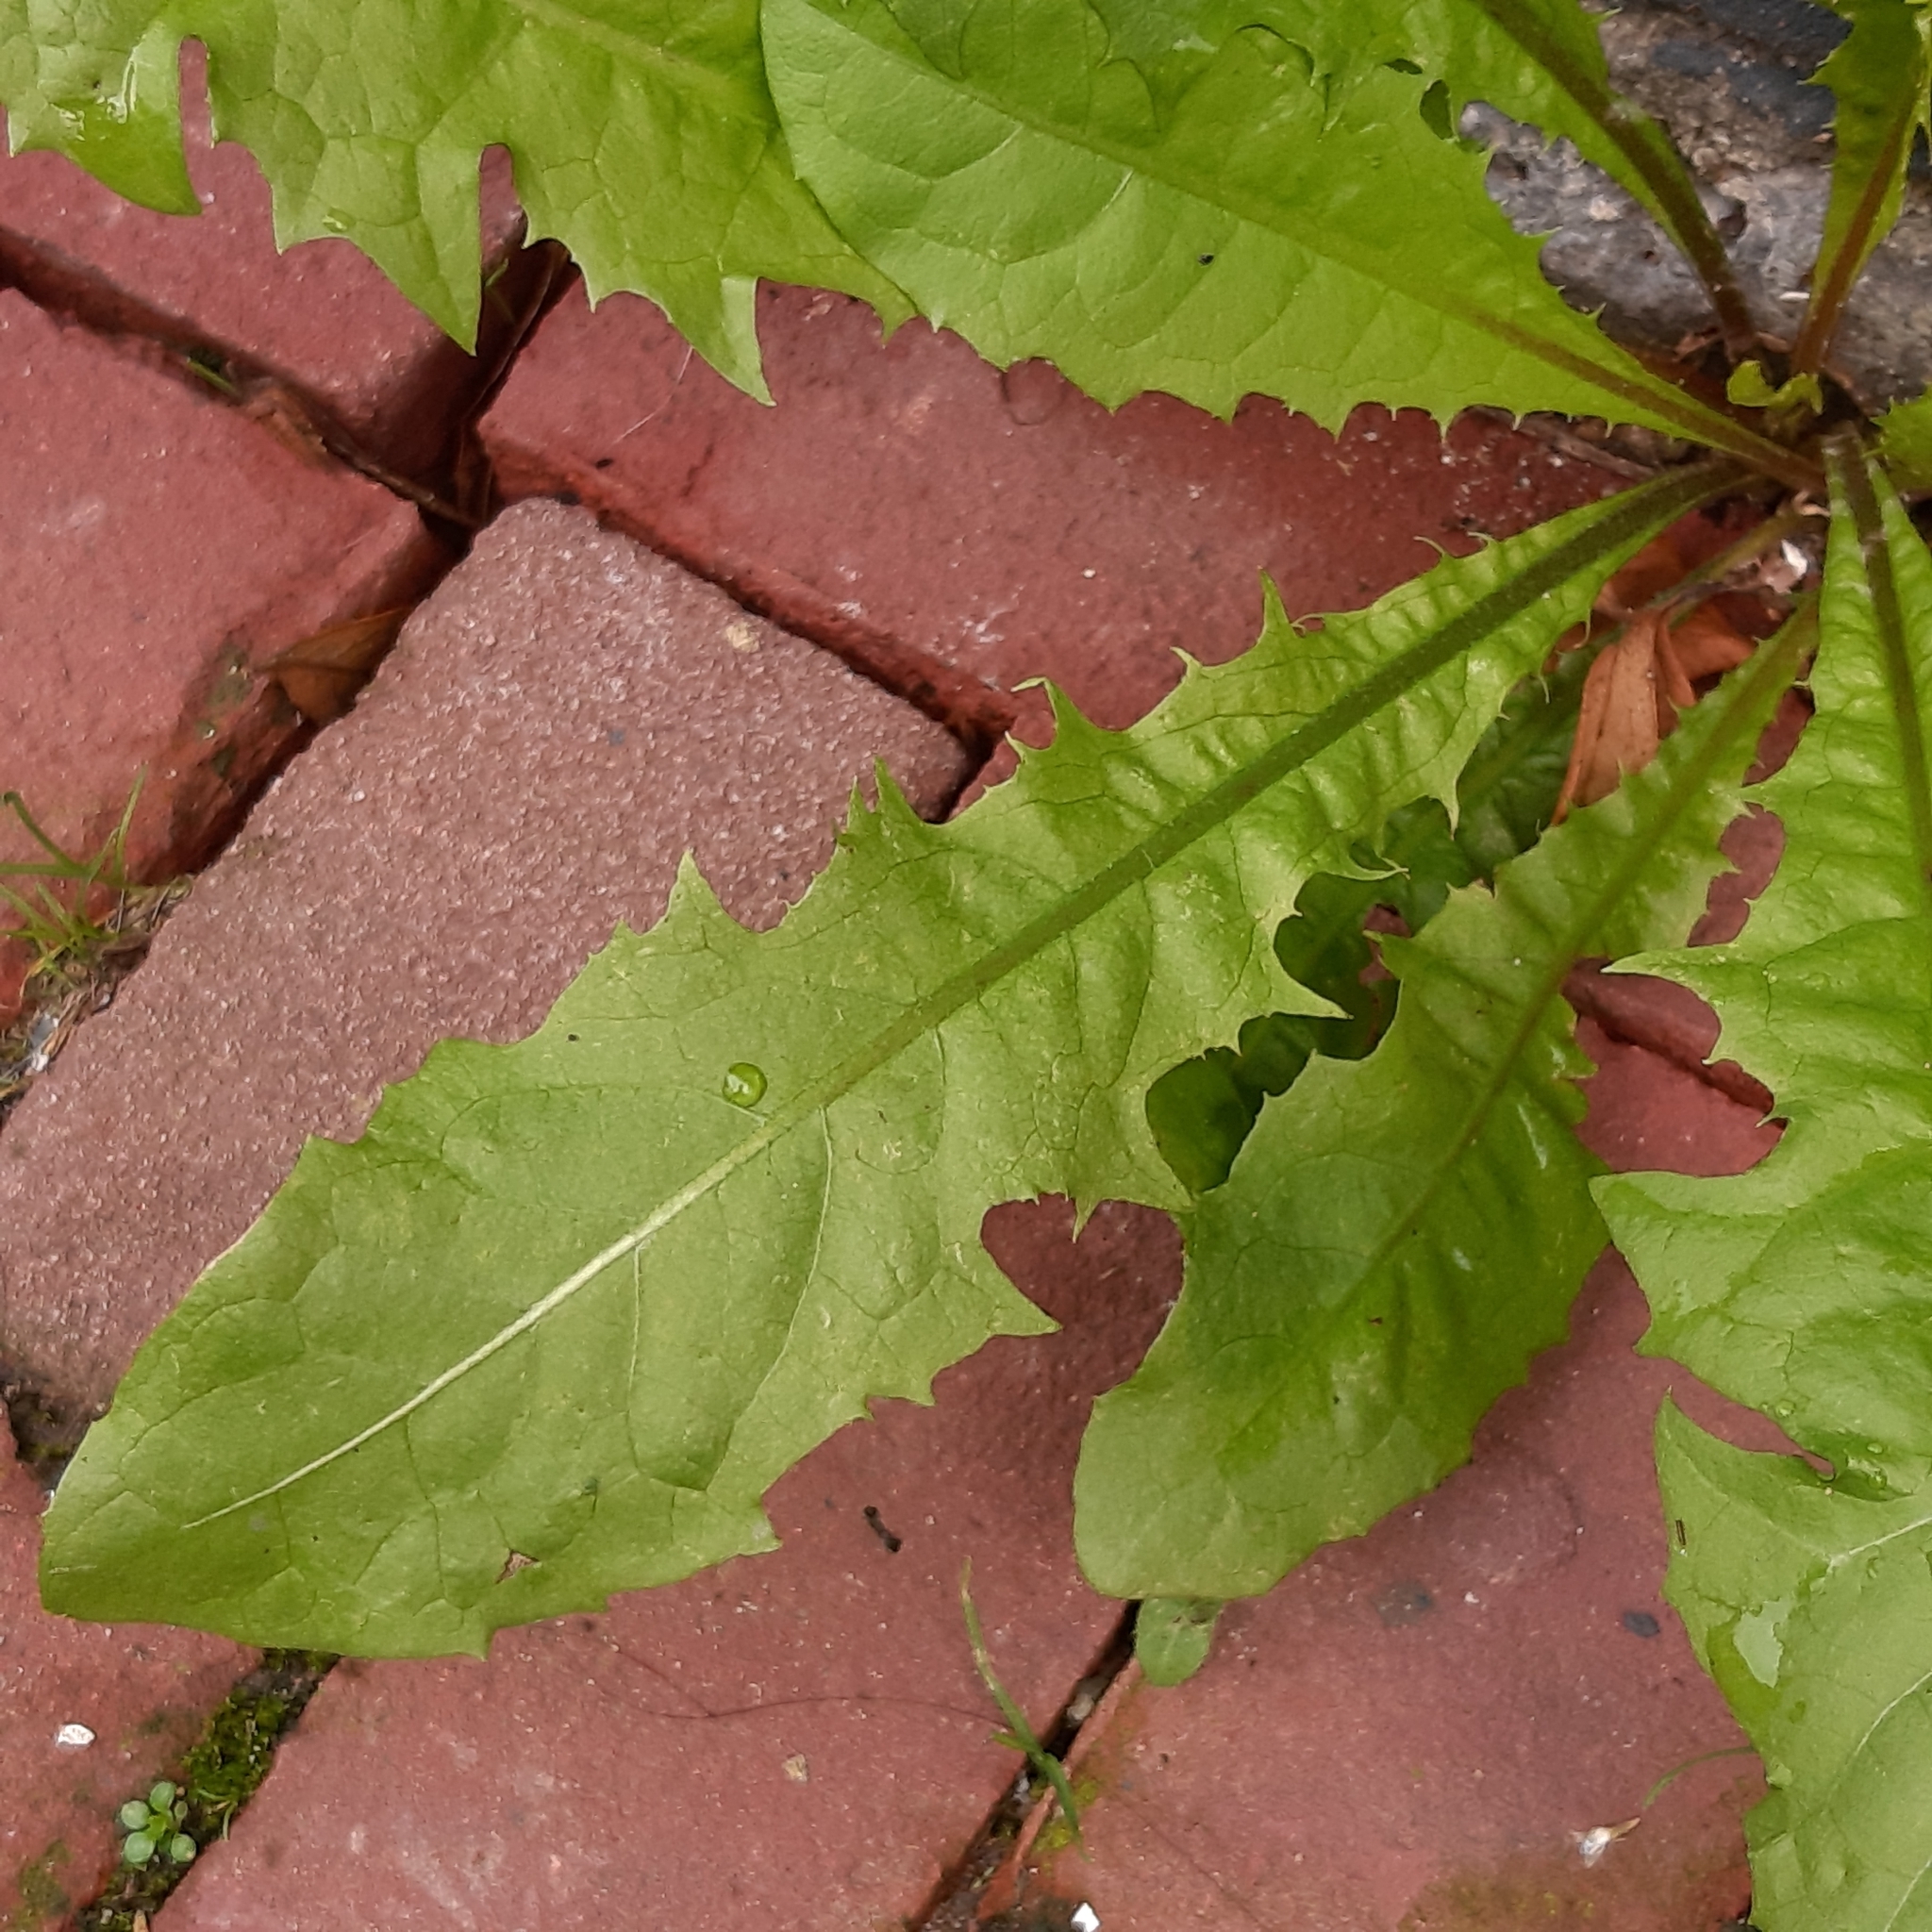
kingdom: Plantae
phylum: Tracheophyta
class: Magnoliopsida
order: Asterales
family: Asteraceae
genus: Taraxacum
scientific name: Taraxacum officinale
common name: Common dandelion
